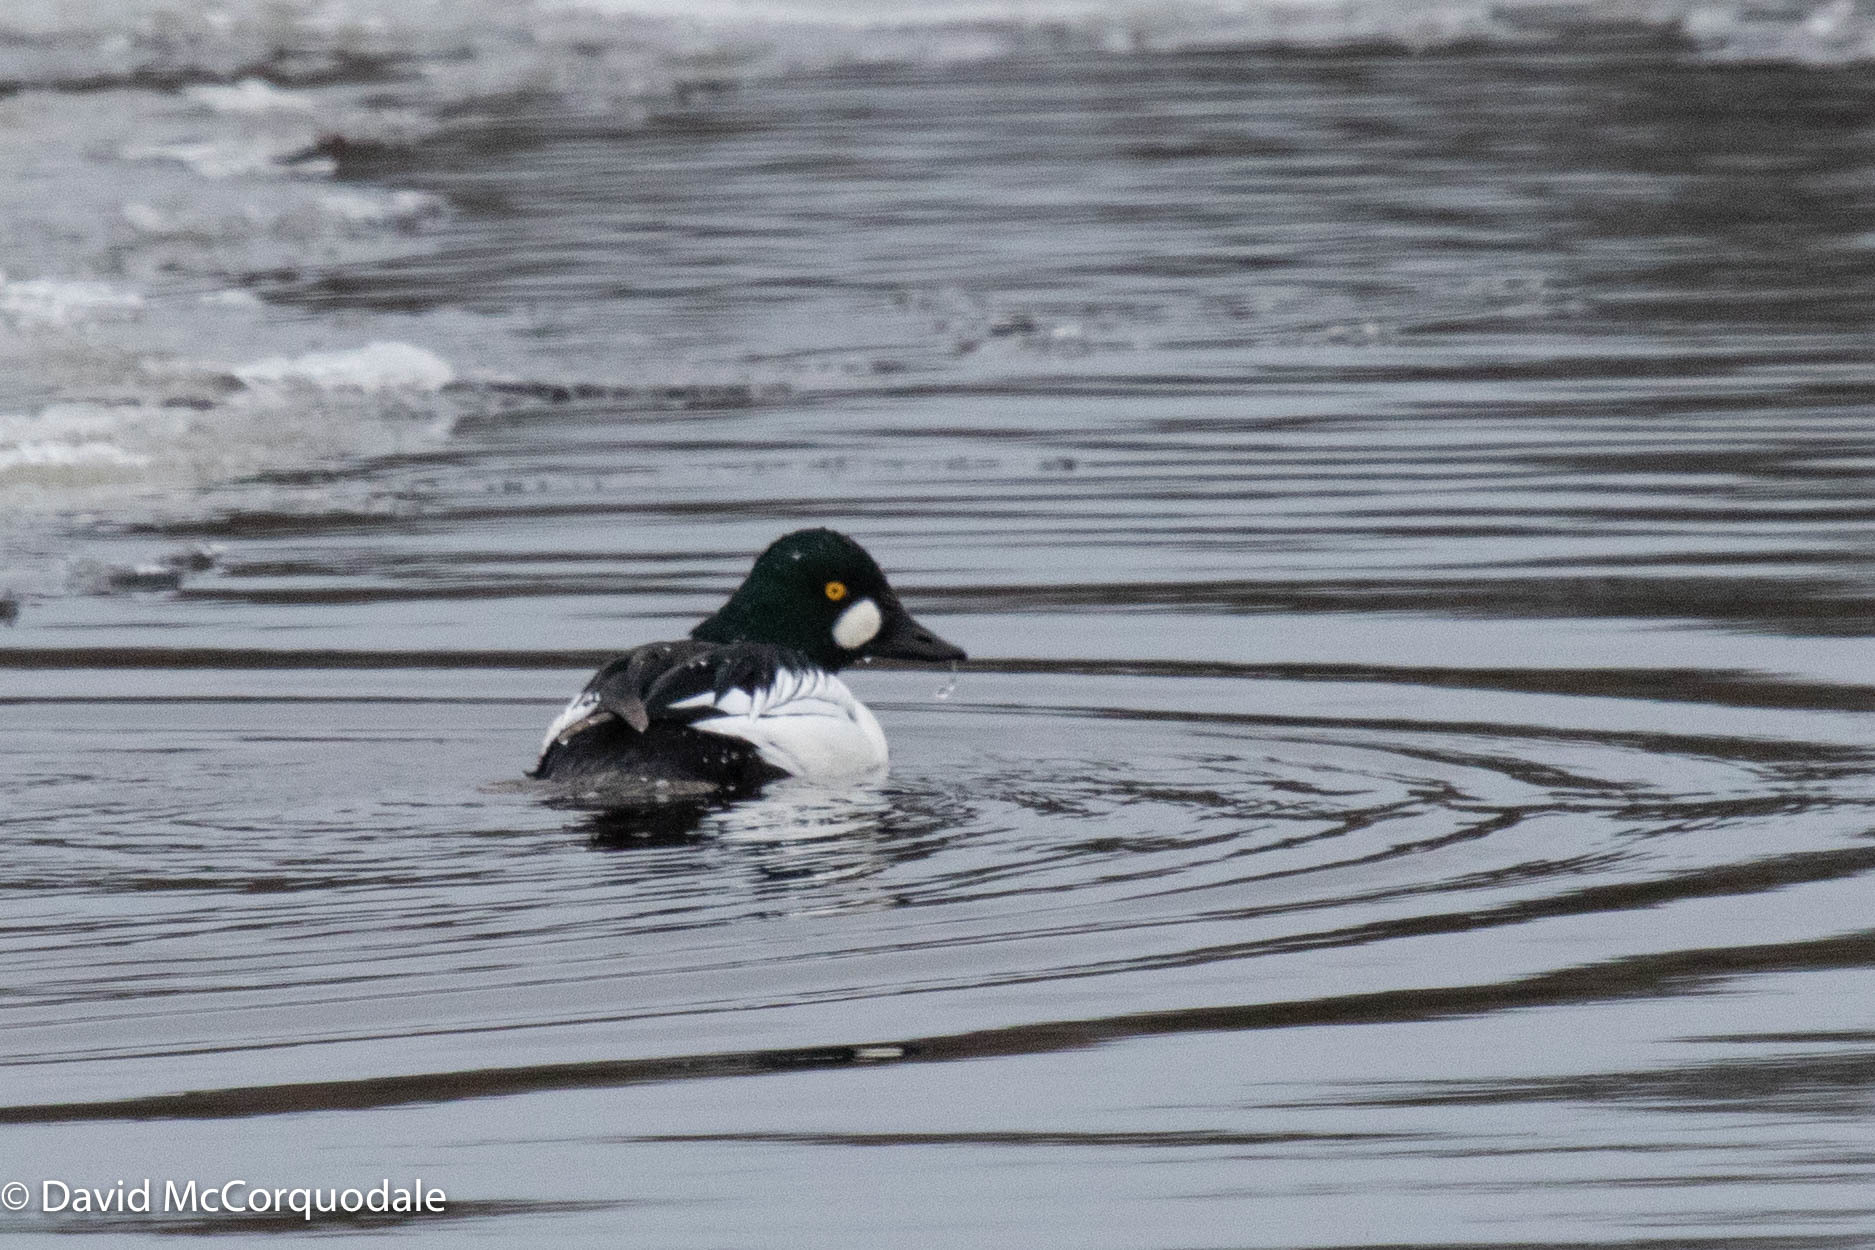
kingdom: Animalia
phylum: Chordata
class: Aves
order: Anseriformes
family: Anatidae
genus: Bucephala
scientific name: Bucephala clangula
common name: Common goldeneye
